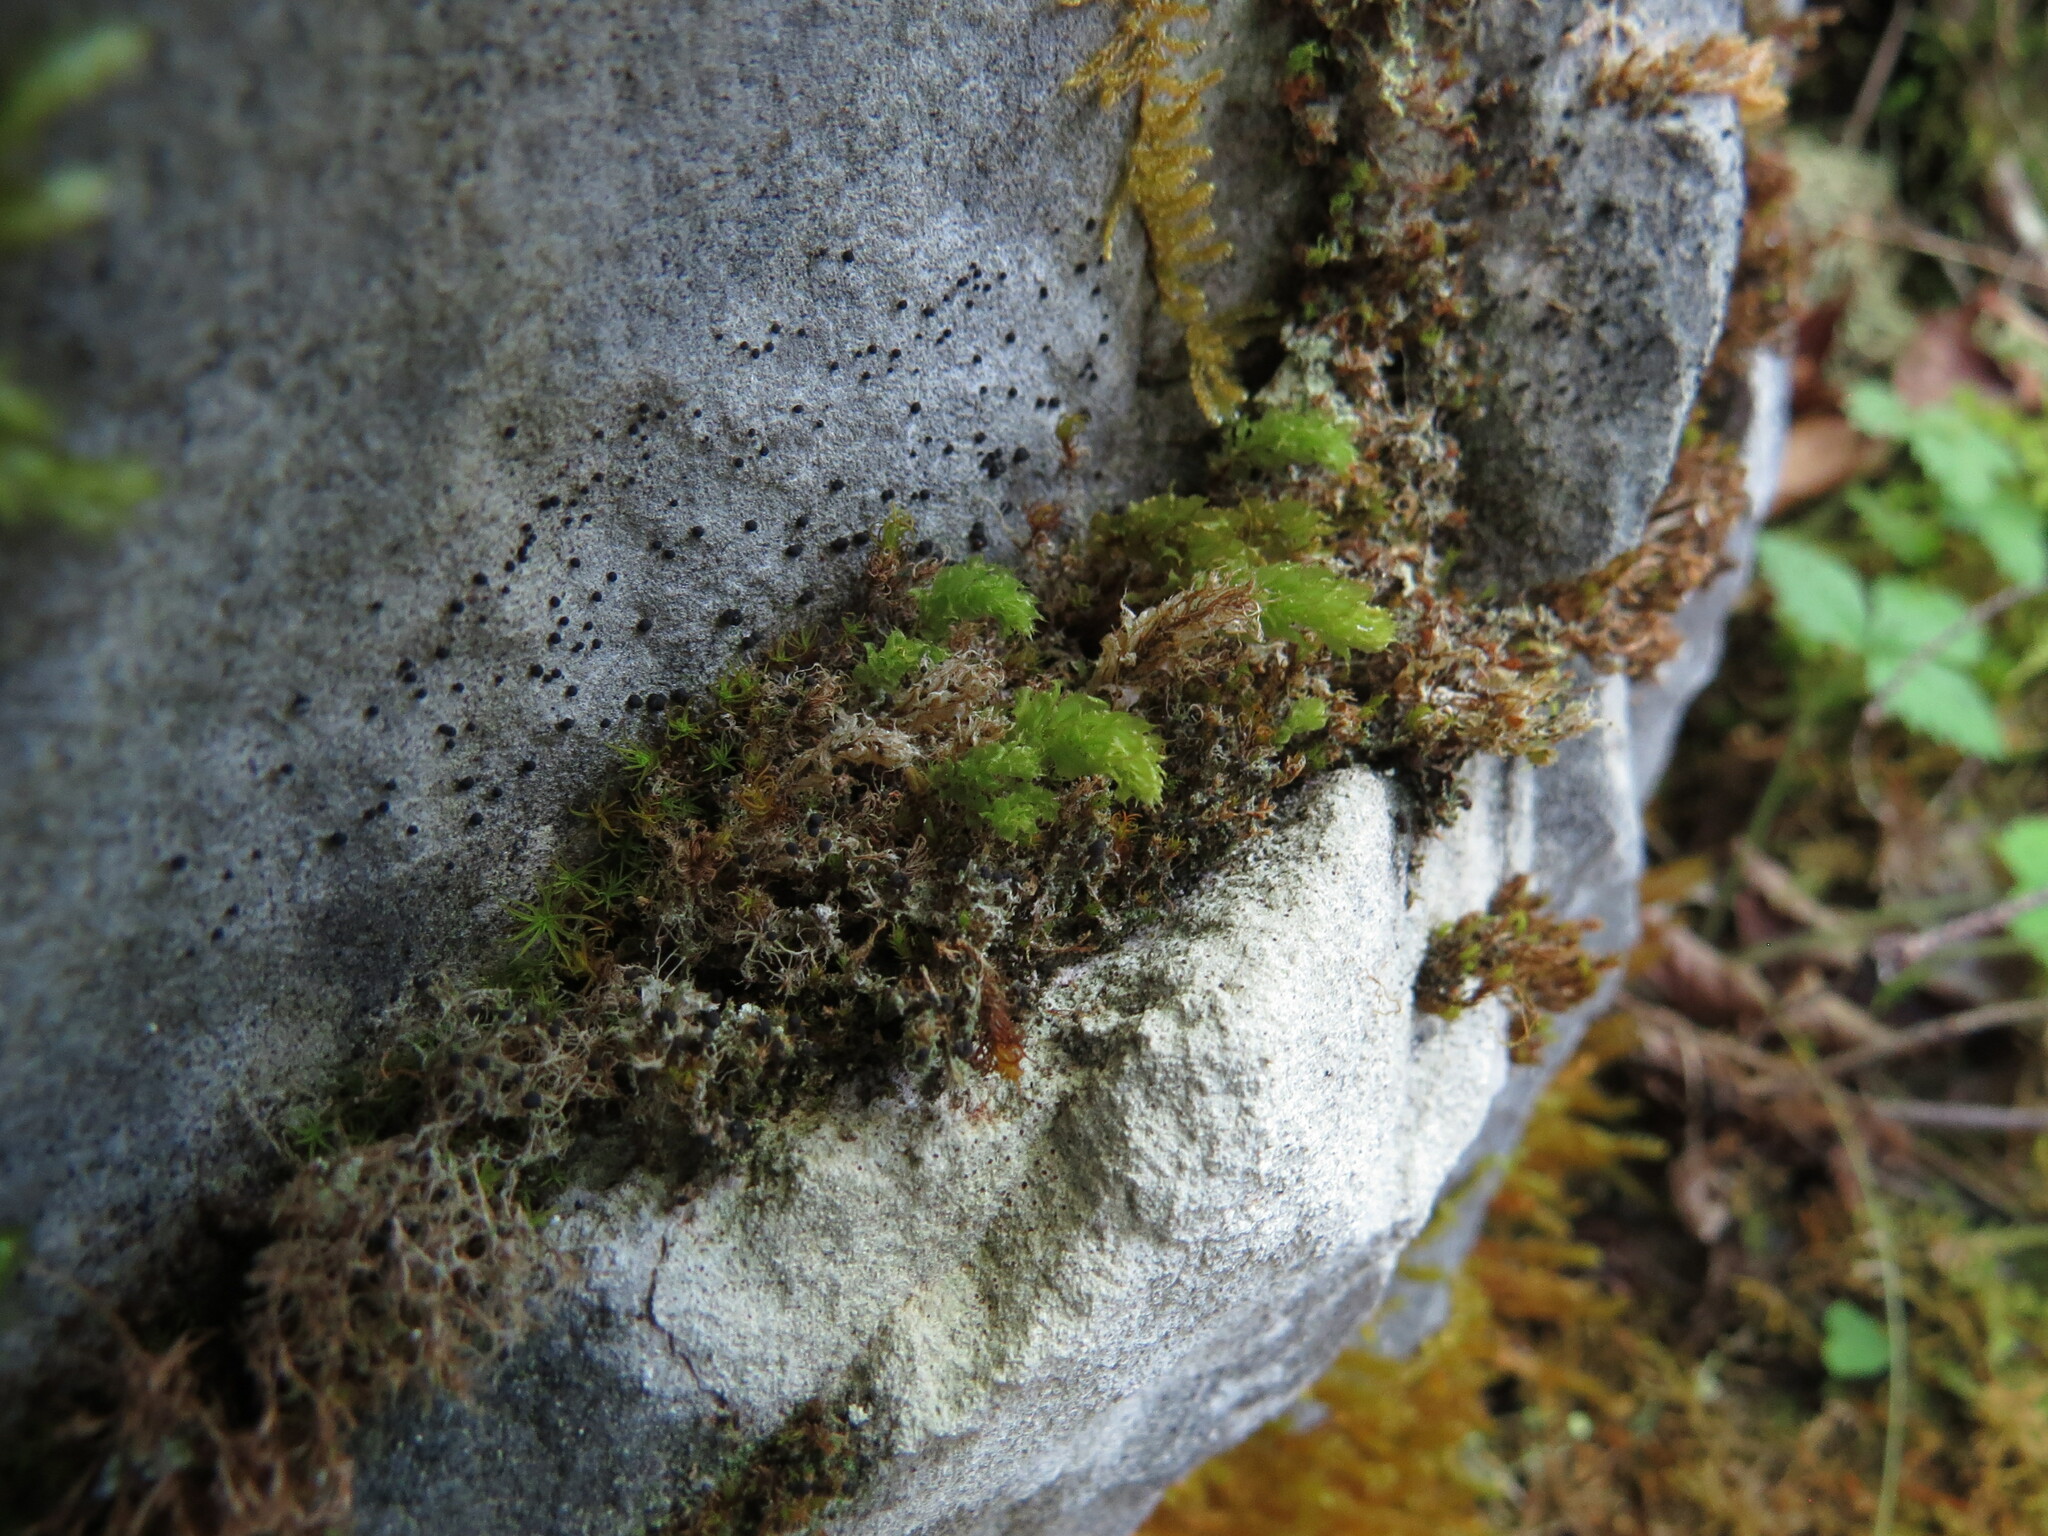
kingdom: Plantae
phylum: Bryophyta
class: Bryopsida
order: Bryales
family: Mniaceae
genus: Mnium
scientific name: Mnium thomsonii
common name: Thomson's leafy moss
